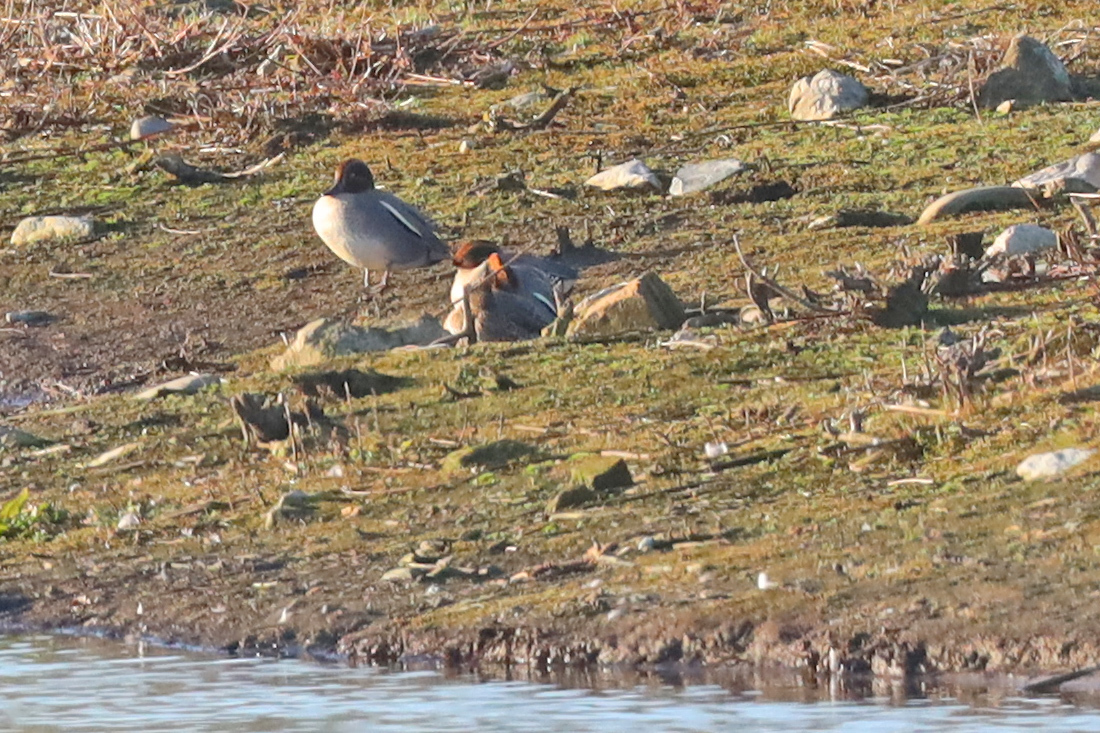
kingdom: Animalia
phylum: Chordata
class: Aves
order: Anseriformes
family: Anatidae
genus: Anas
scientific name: Anas crecca
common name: Eurasian teal
